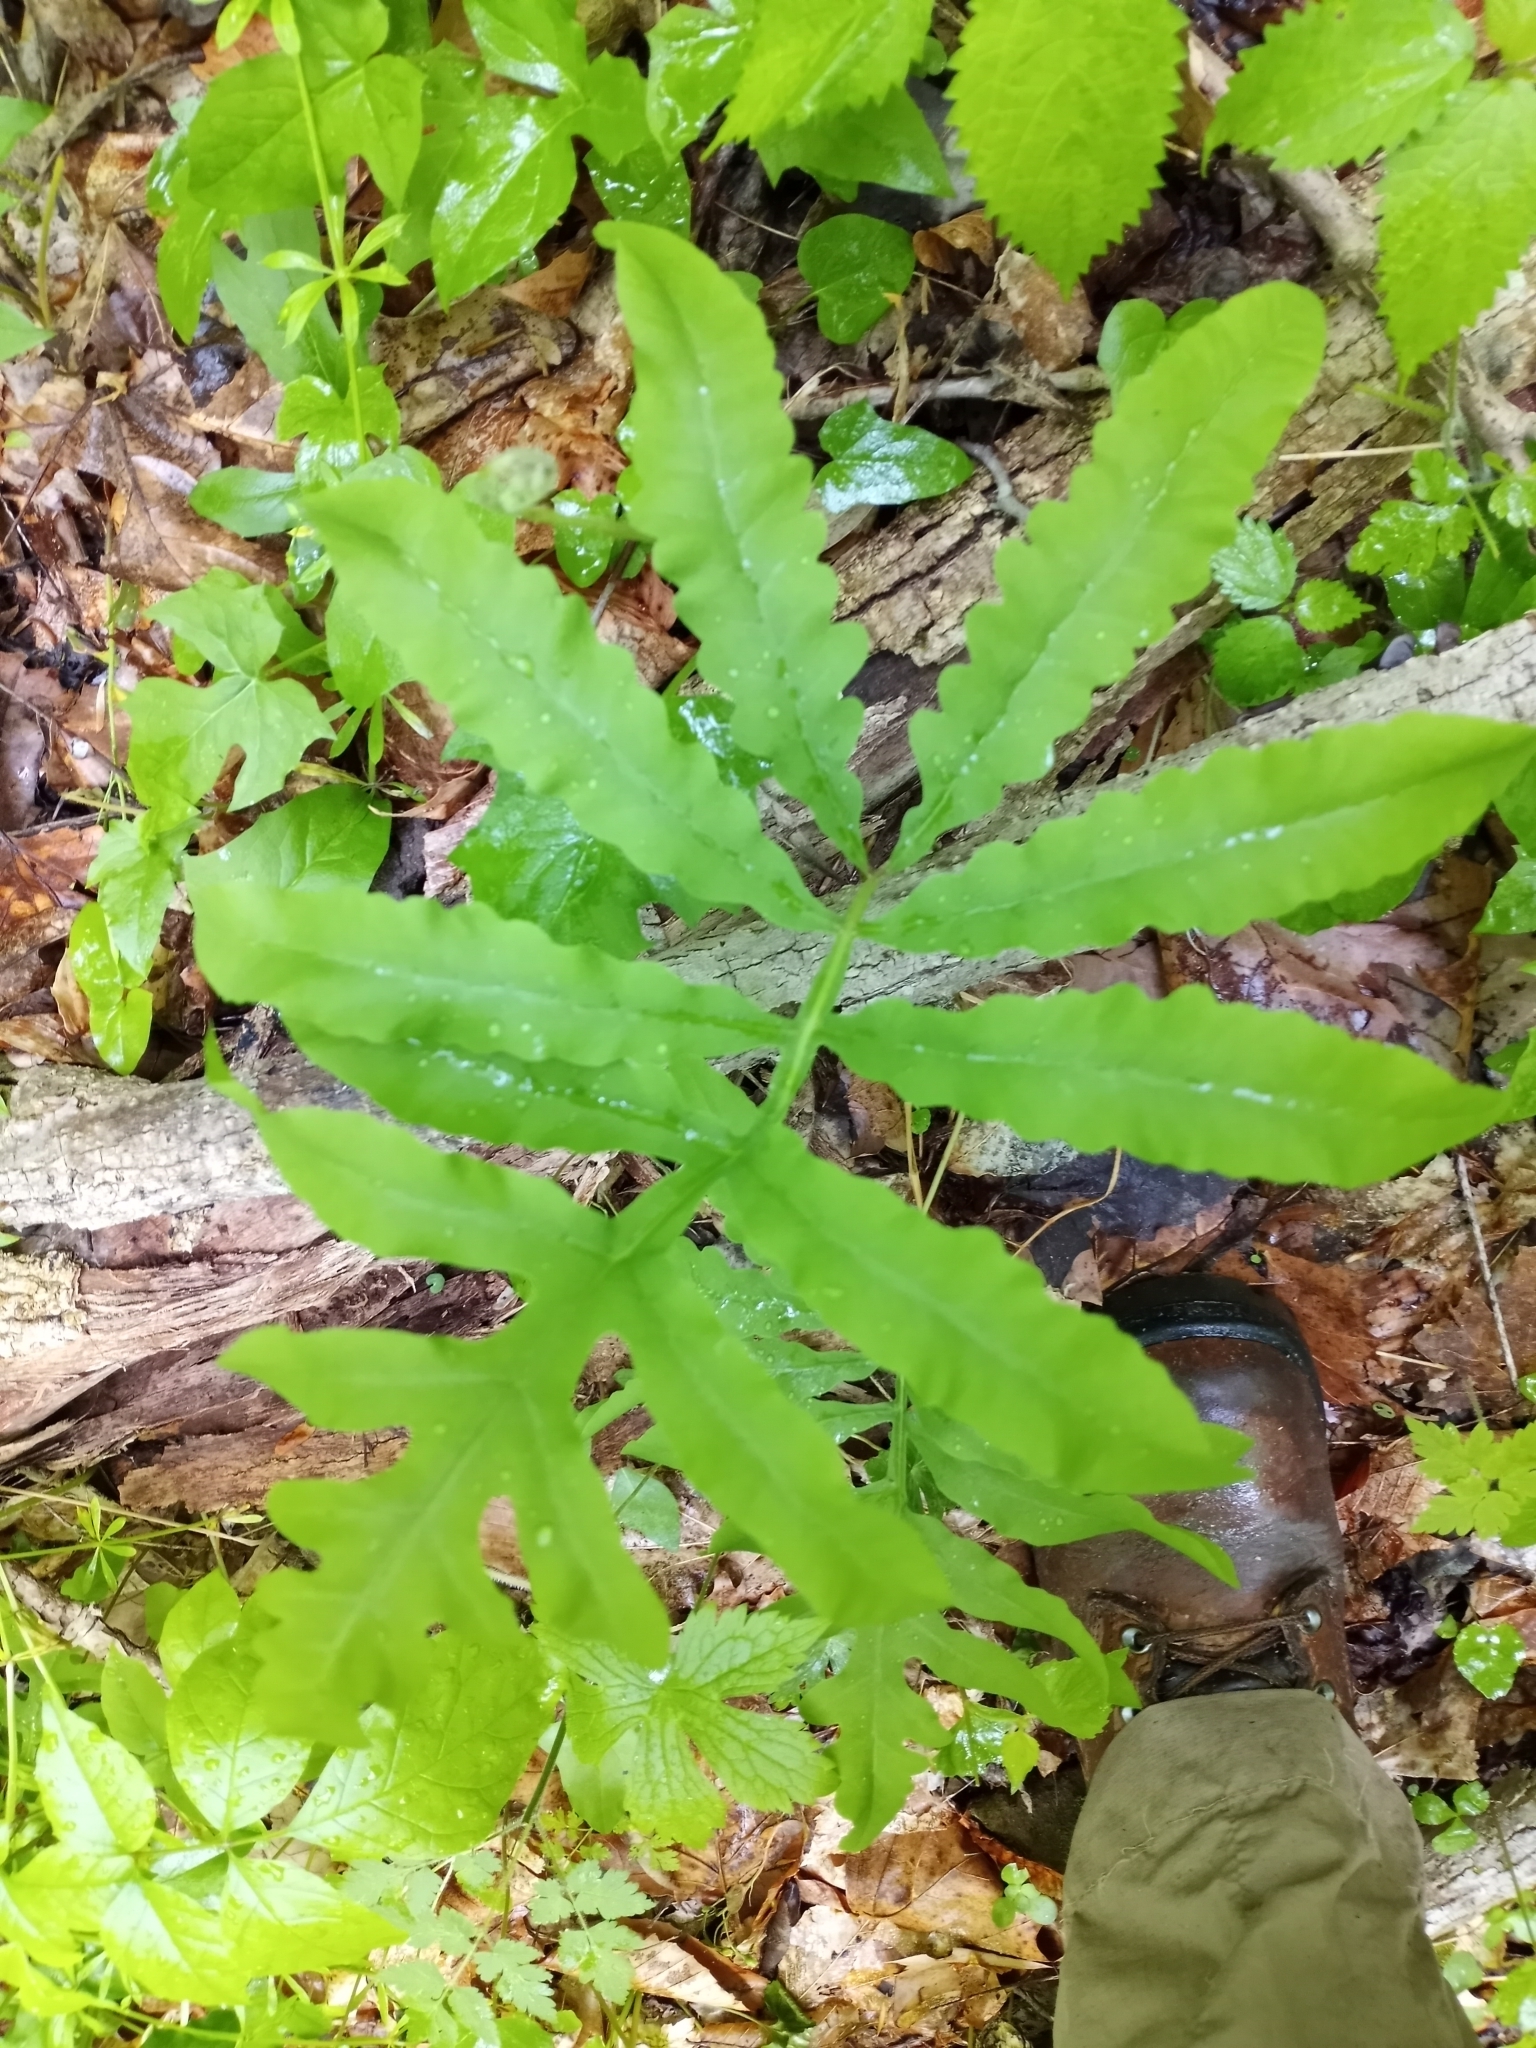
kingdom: Plantae
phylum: Tracheophyta
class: Polypodiopsida
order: Polypodiales
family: Onocleaceae
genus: Onoclea
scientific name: Onoclea sensibilis
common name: Sensitive fern
